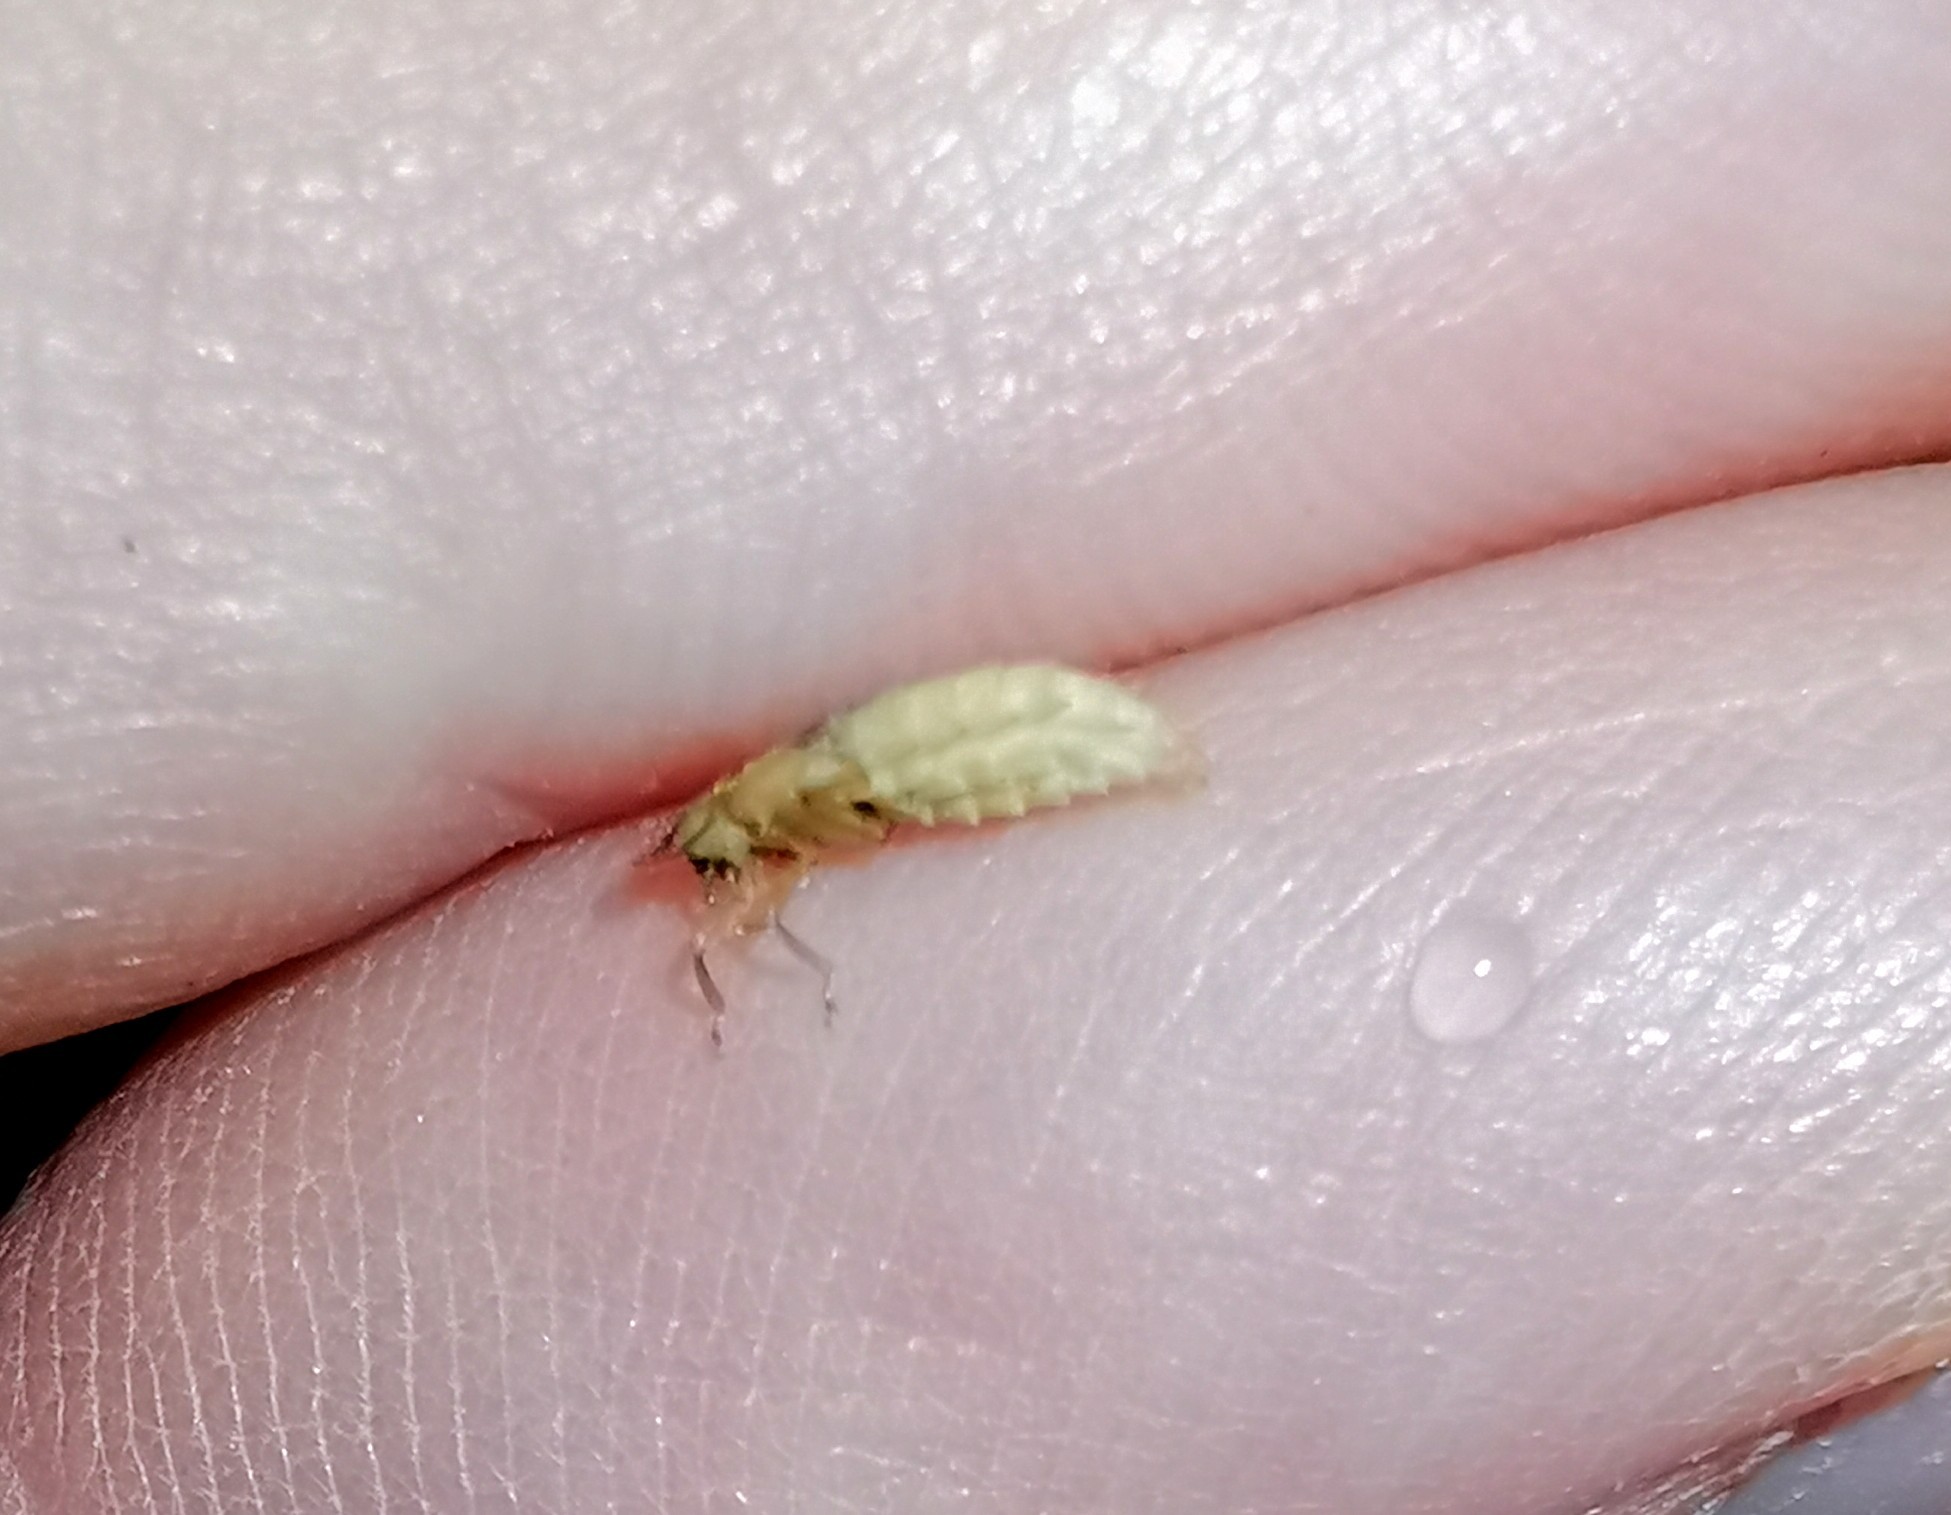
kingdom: Animalia
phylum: Arthropoda
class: Insecta
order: Coleoptera
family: Lampyridae
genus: Lamprohiza
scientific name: Lamprohiza splendidula
